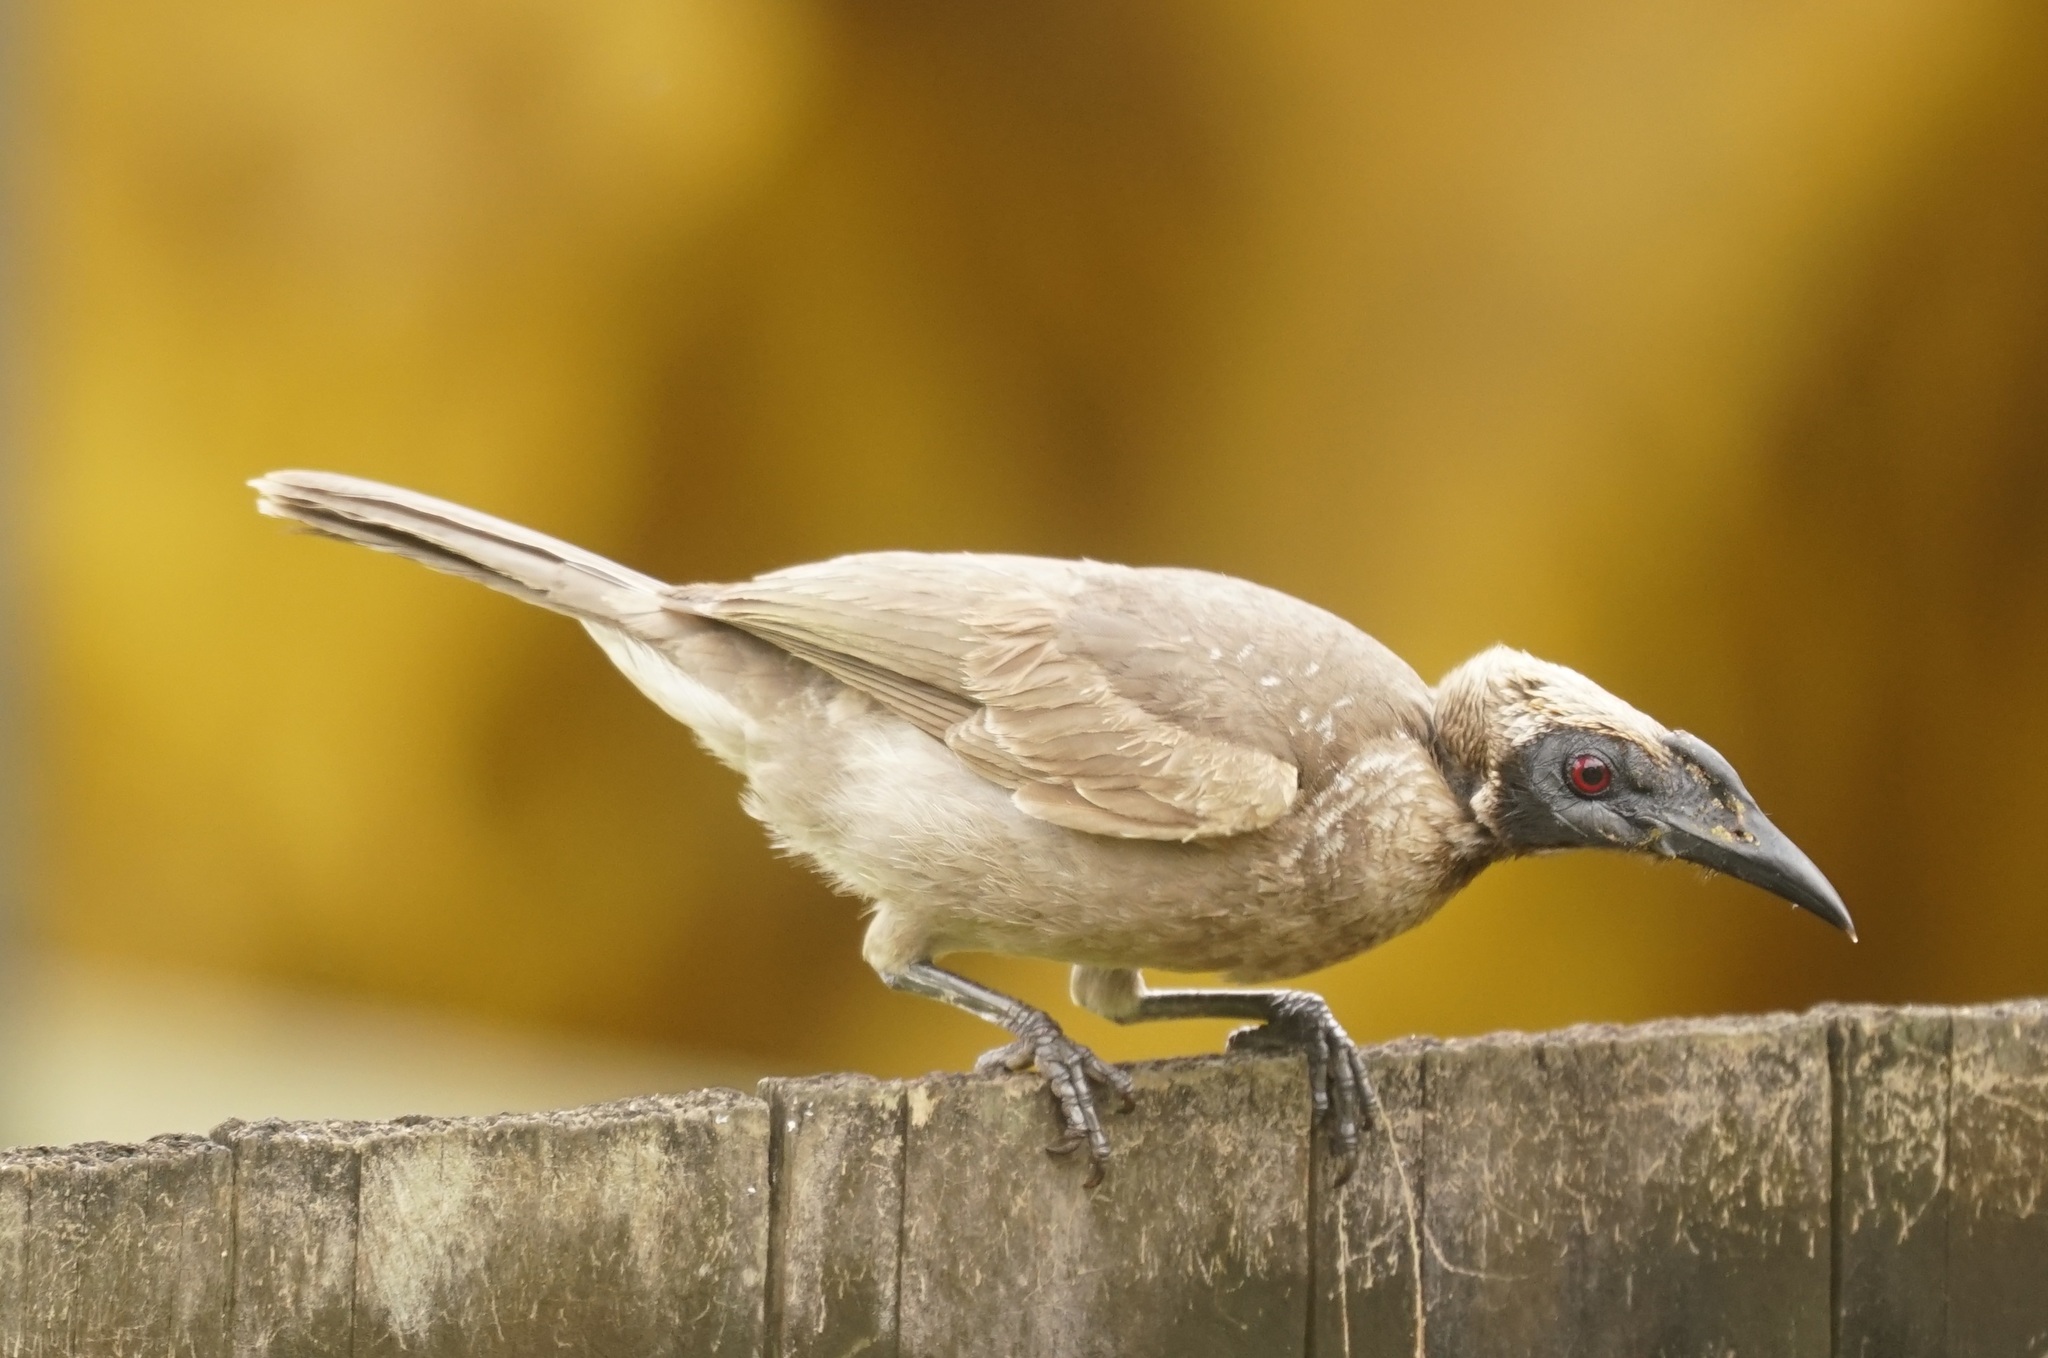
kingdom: Animalia
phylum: Chordata
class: Aves
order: Passeriformes
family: Meliphagidae
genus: Philemon
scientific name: Philemon buceroides
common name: Helmeted friarbird
